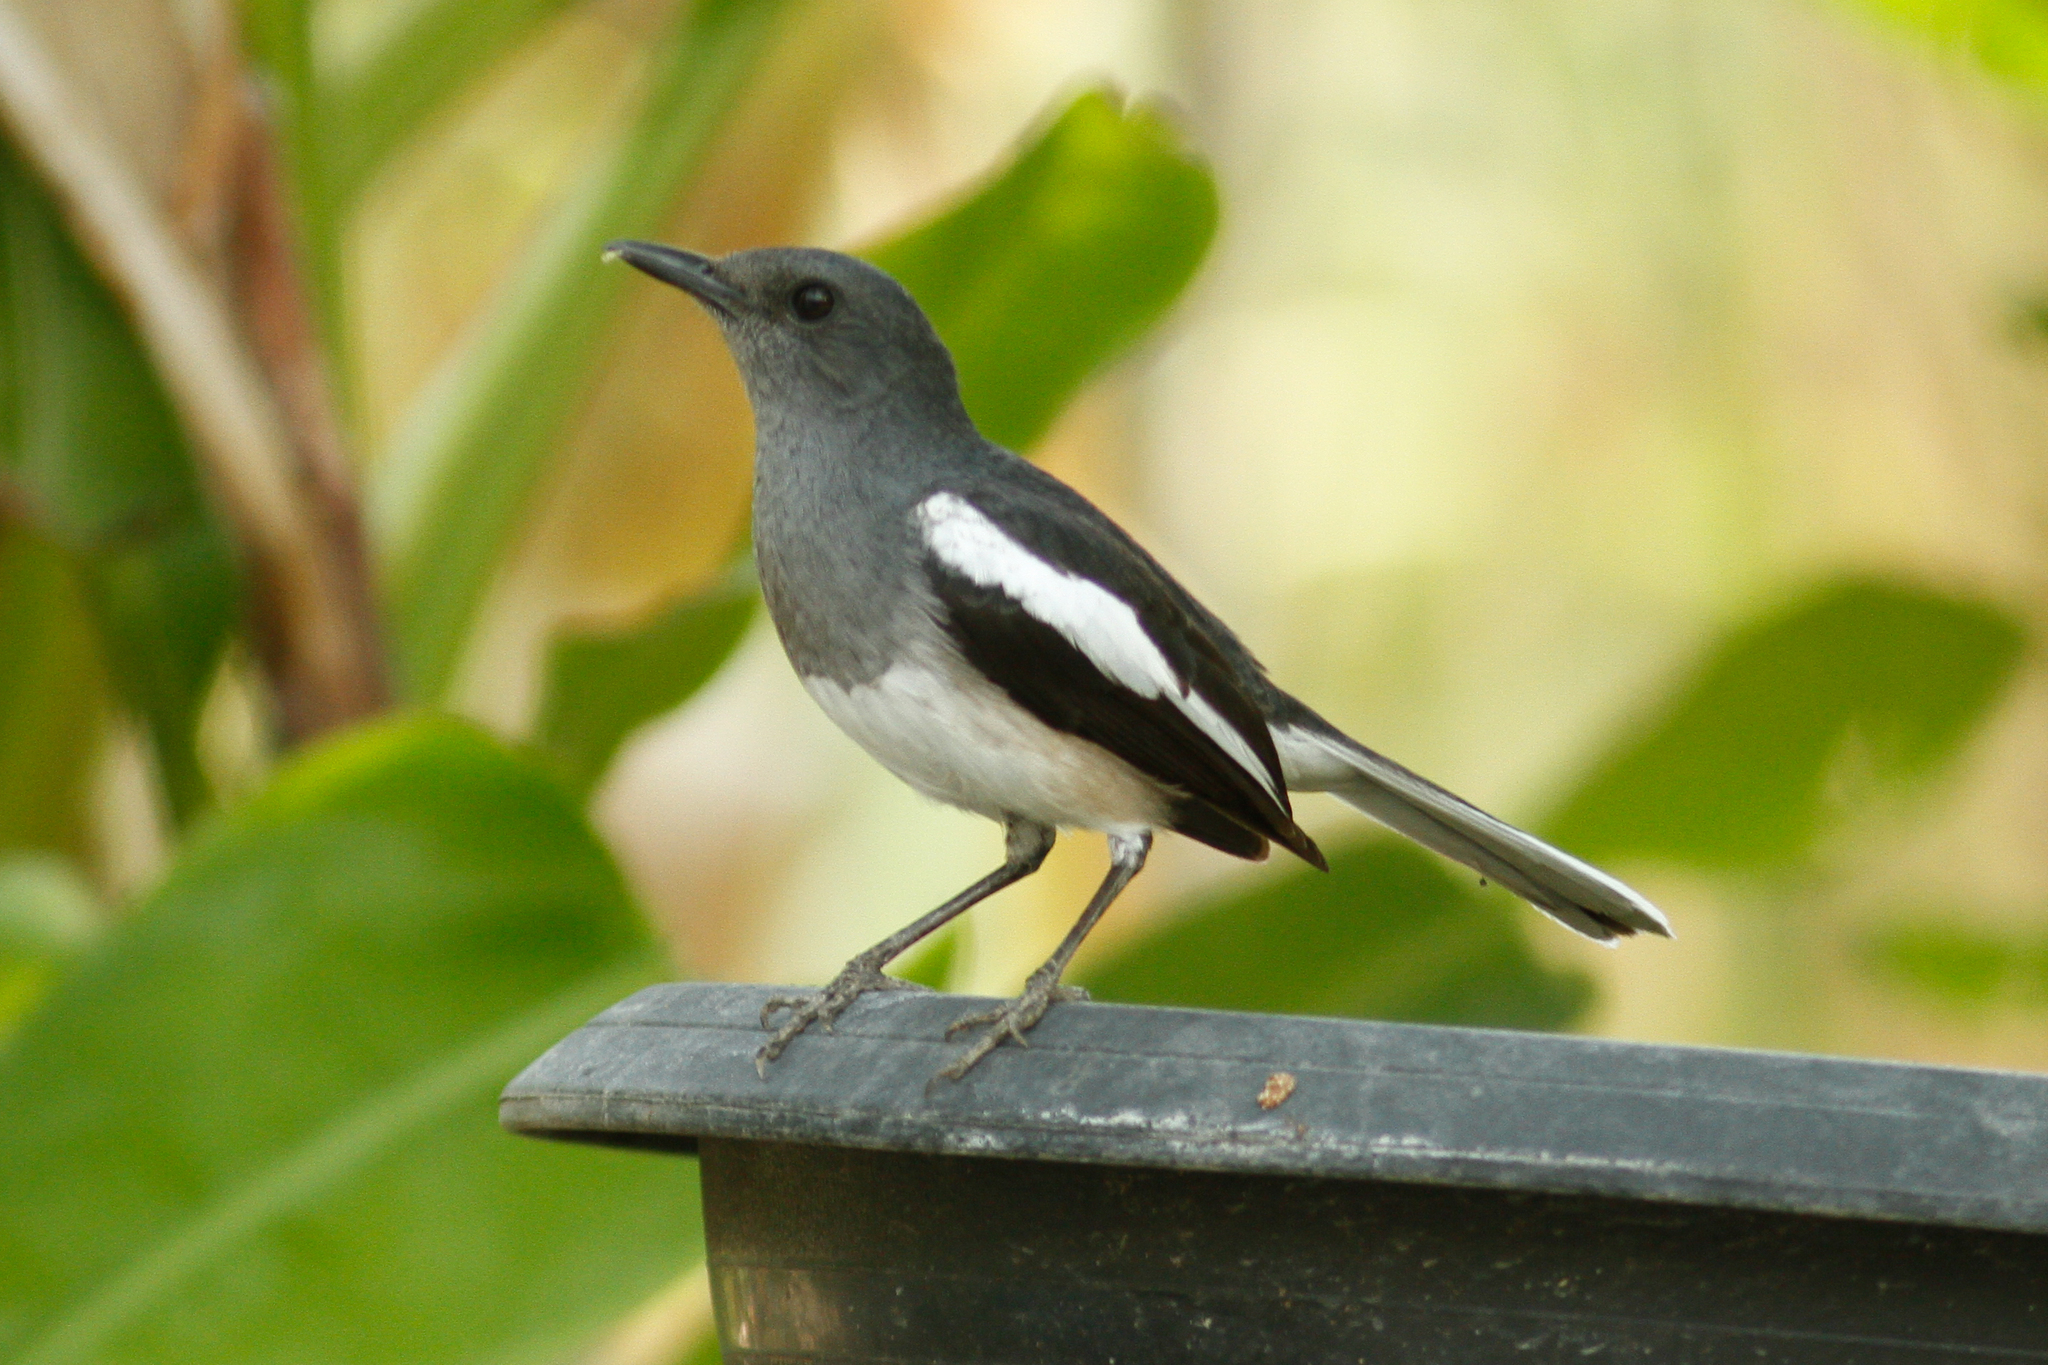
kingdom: Animalia
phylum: Chordata
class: Aves
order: Passeriformes
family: Muscicapidae
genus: Copsychus
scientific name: Copsychus saularis
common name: Oriental magpie-robin
